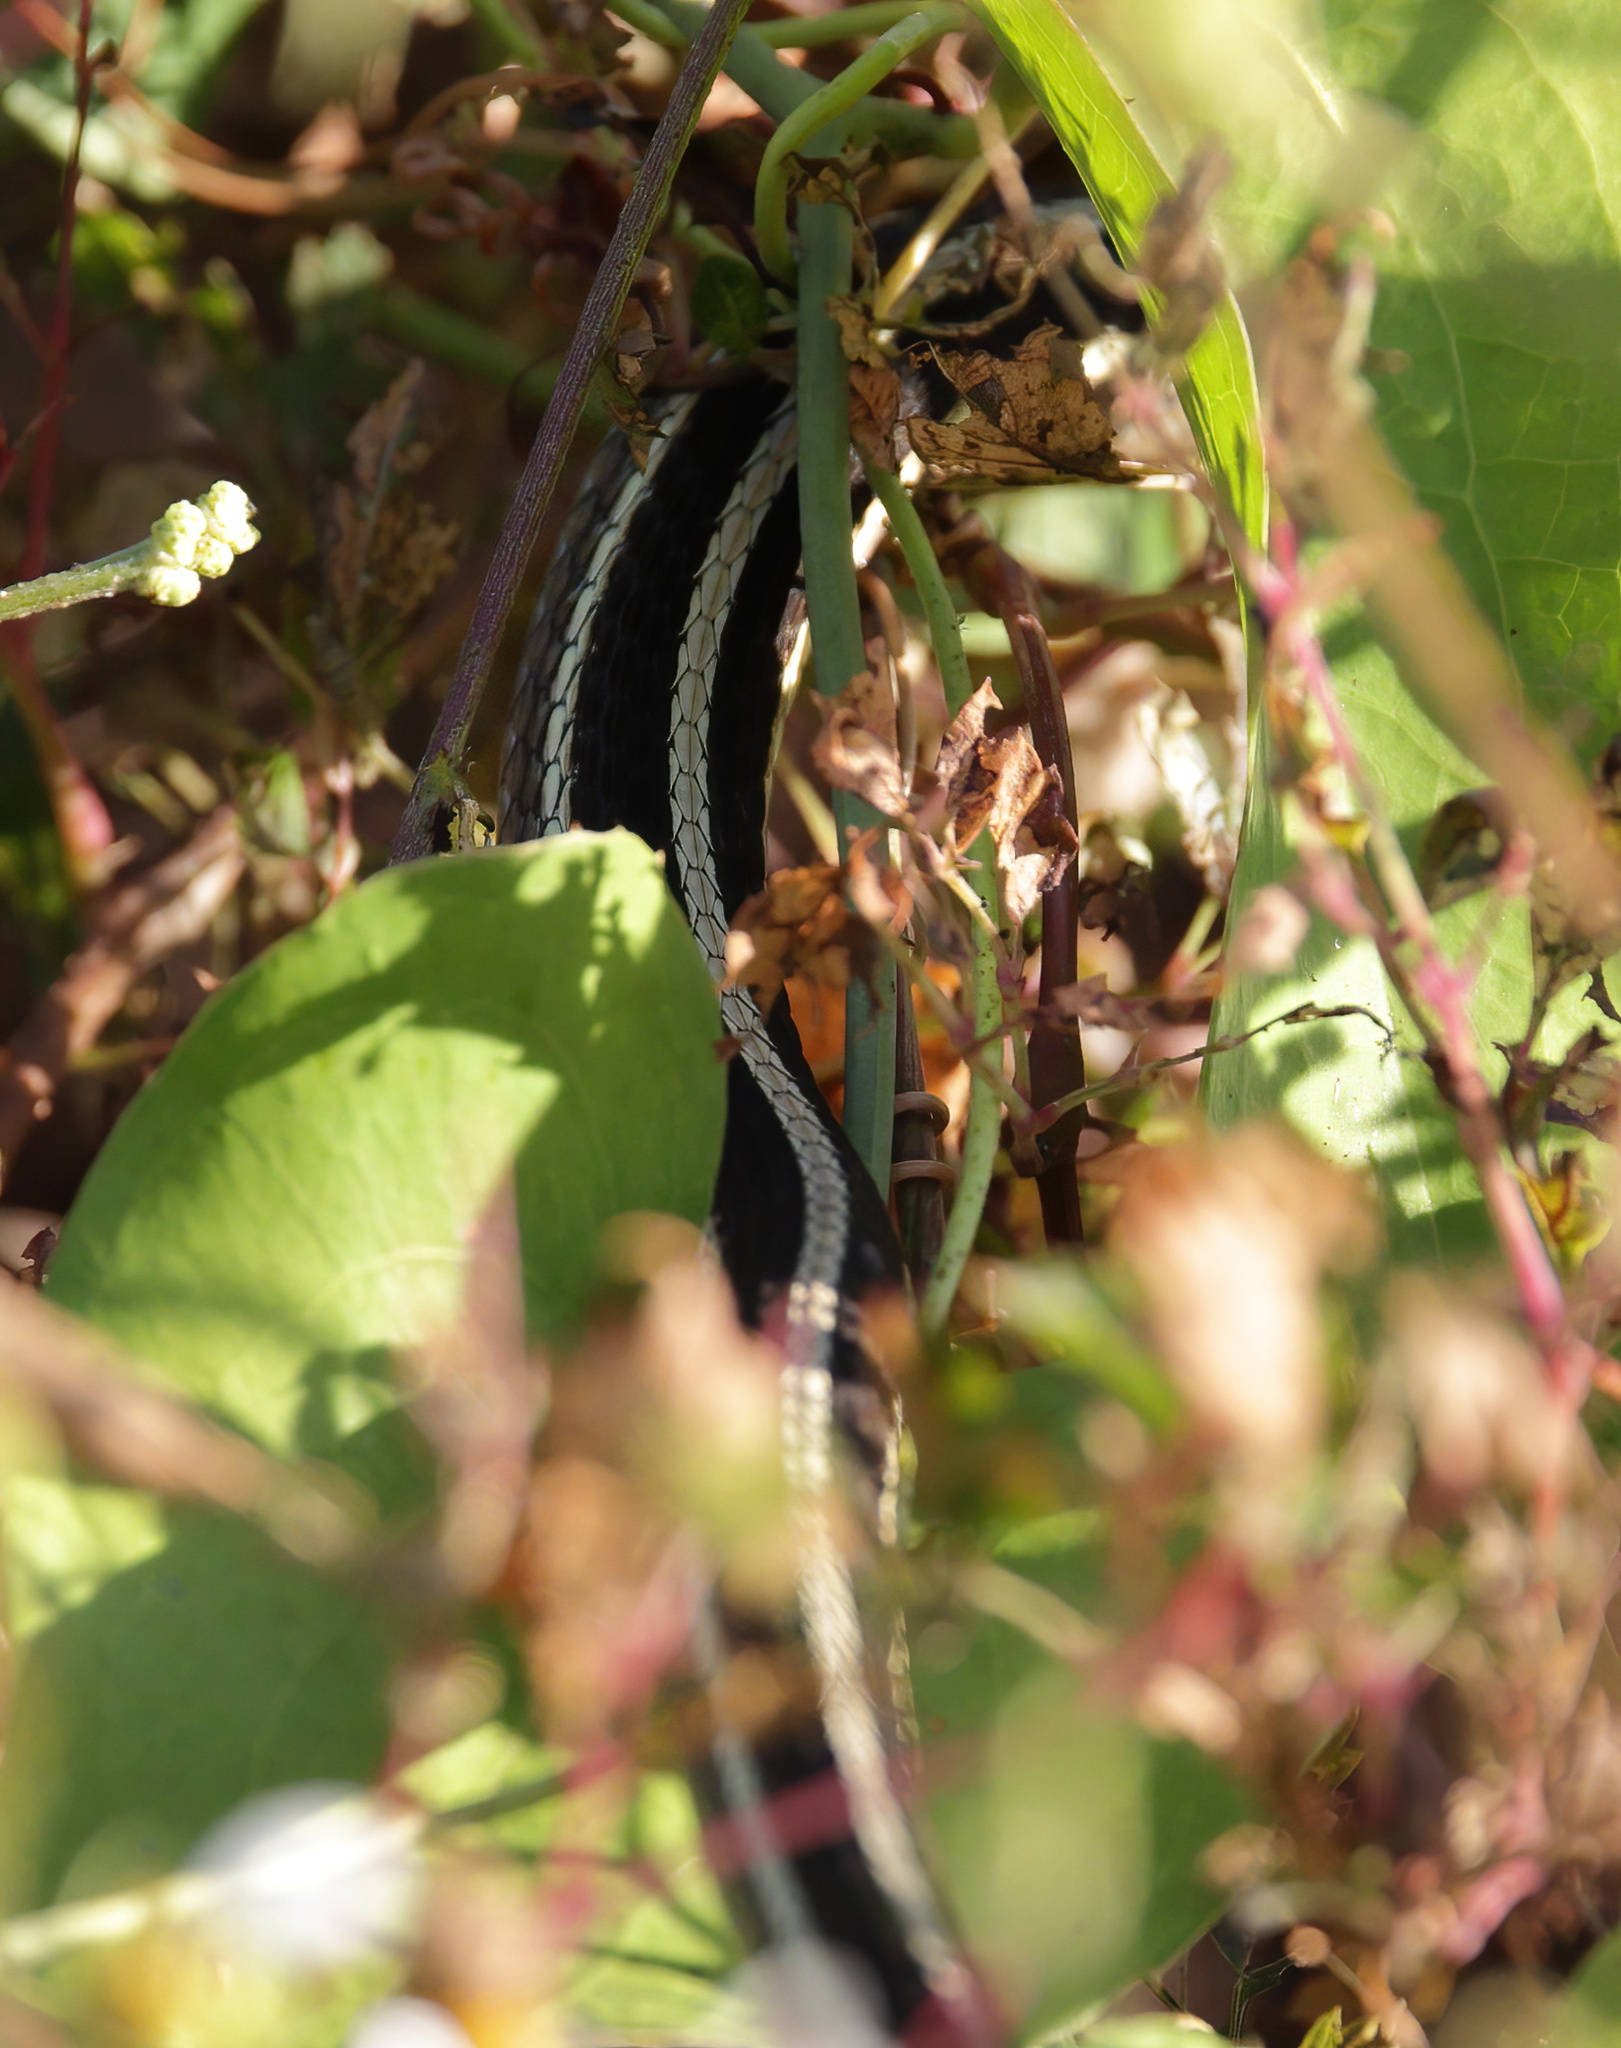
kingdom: Animalia
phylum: Chordata
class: Squamata
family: Colubridae
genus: Thamnophis
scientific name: Thamnophis saurita
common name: Eastern ribbonsnake
